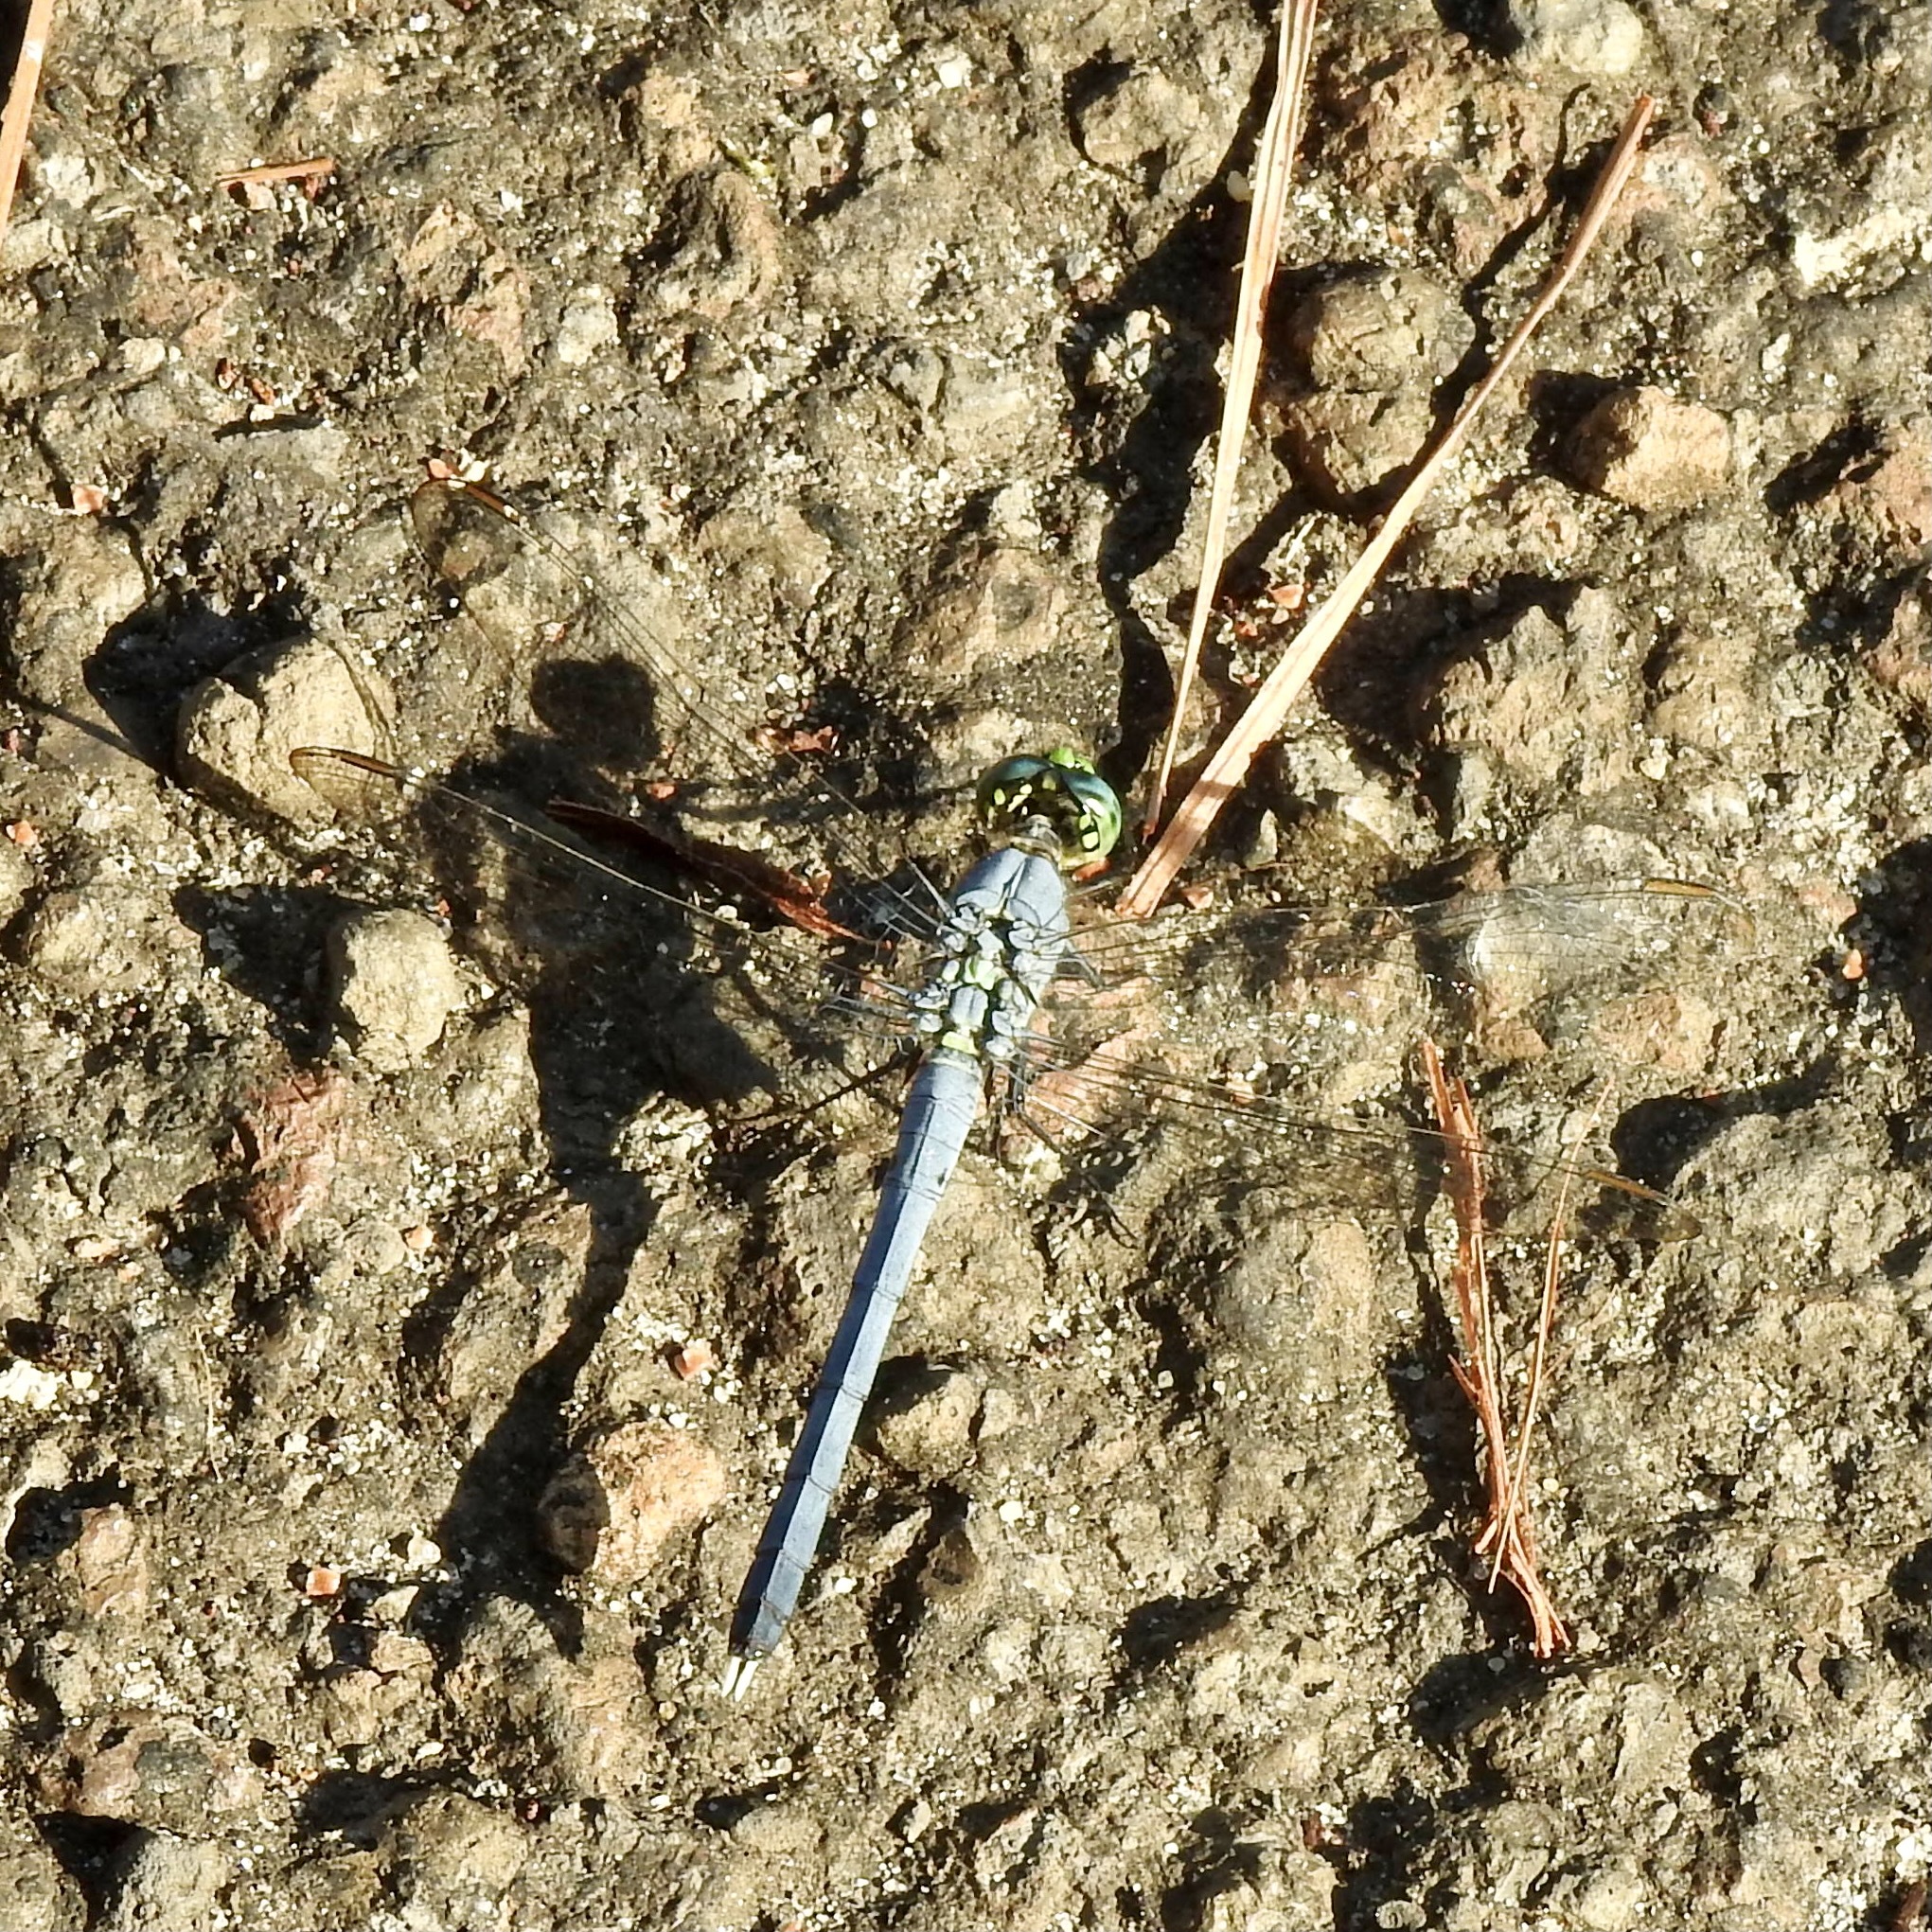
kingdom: Animalia
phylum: Arthropoda
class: Insecta
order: Odonata
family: Libellulidae
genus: Erythemis
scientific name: Erythemis simplicicollis
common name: Eastern pondhawk
